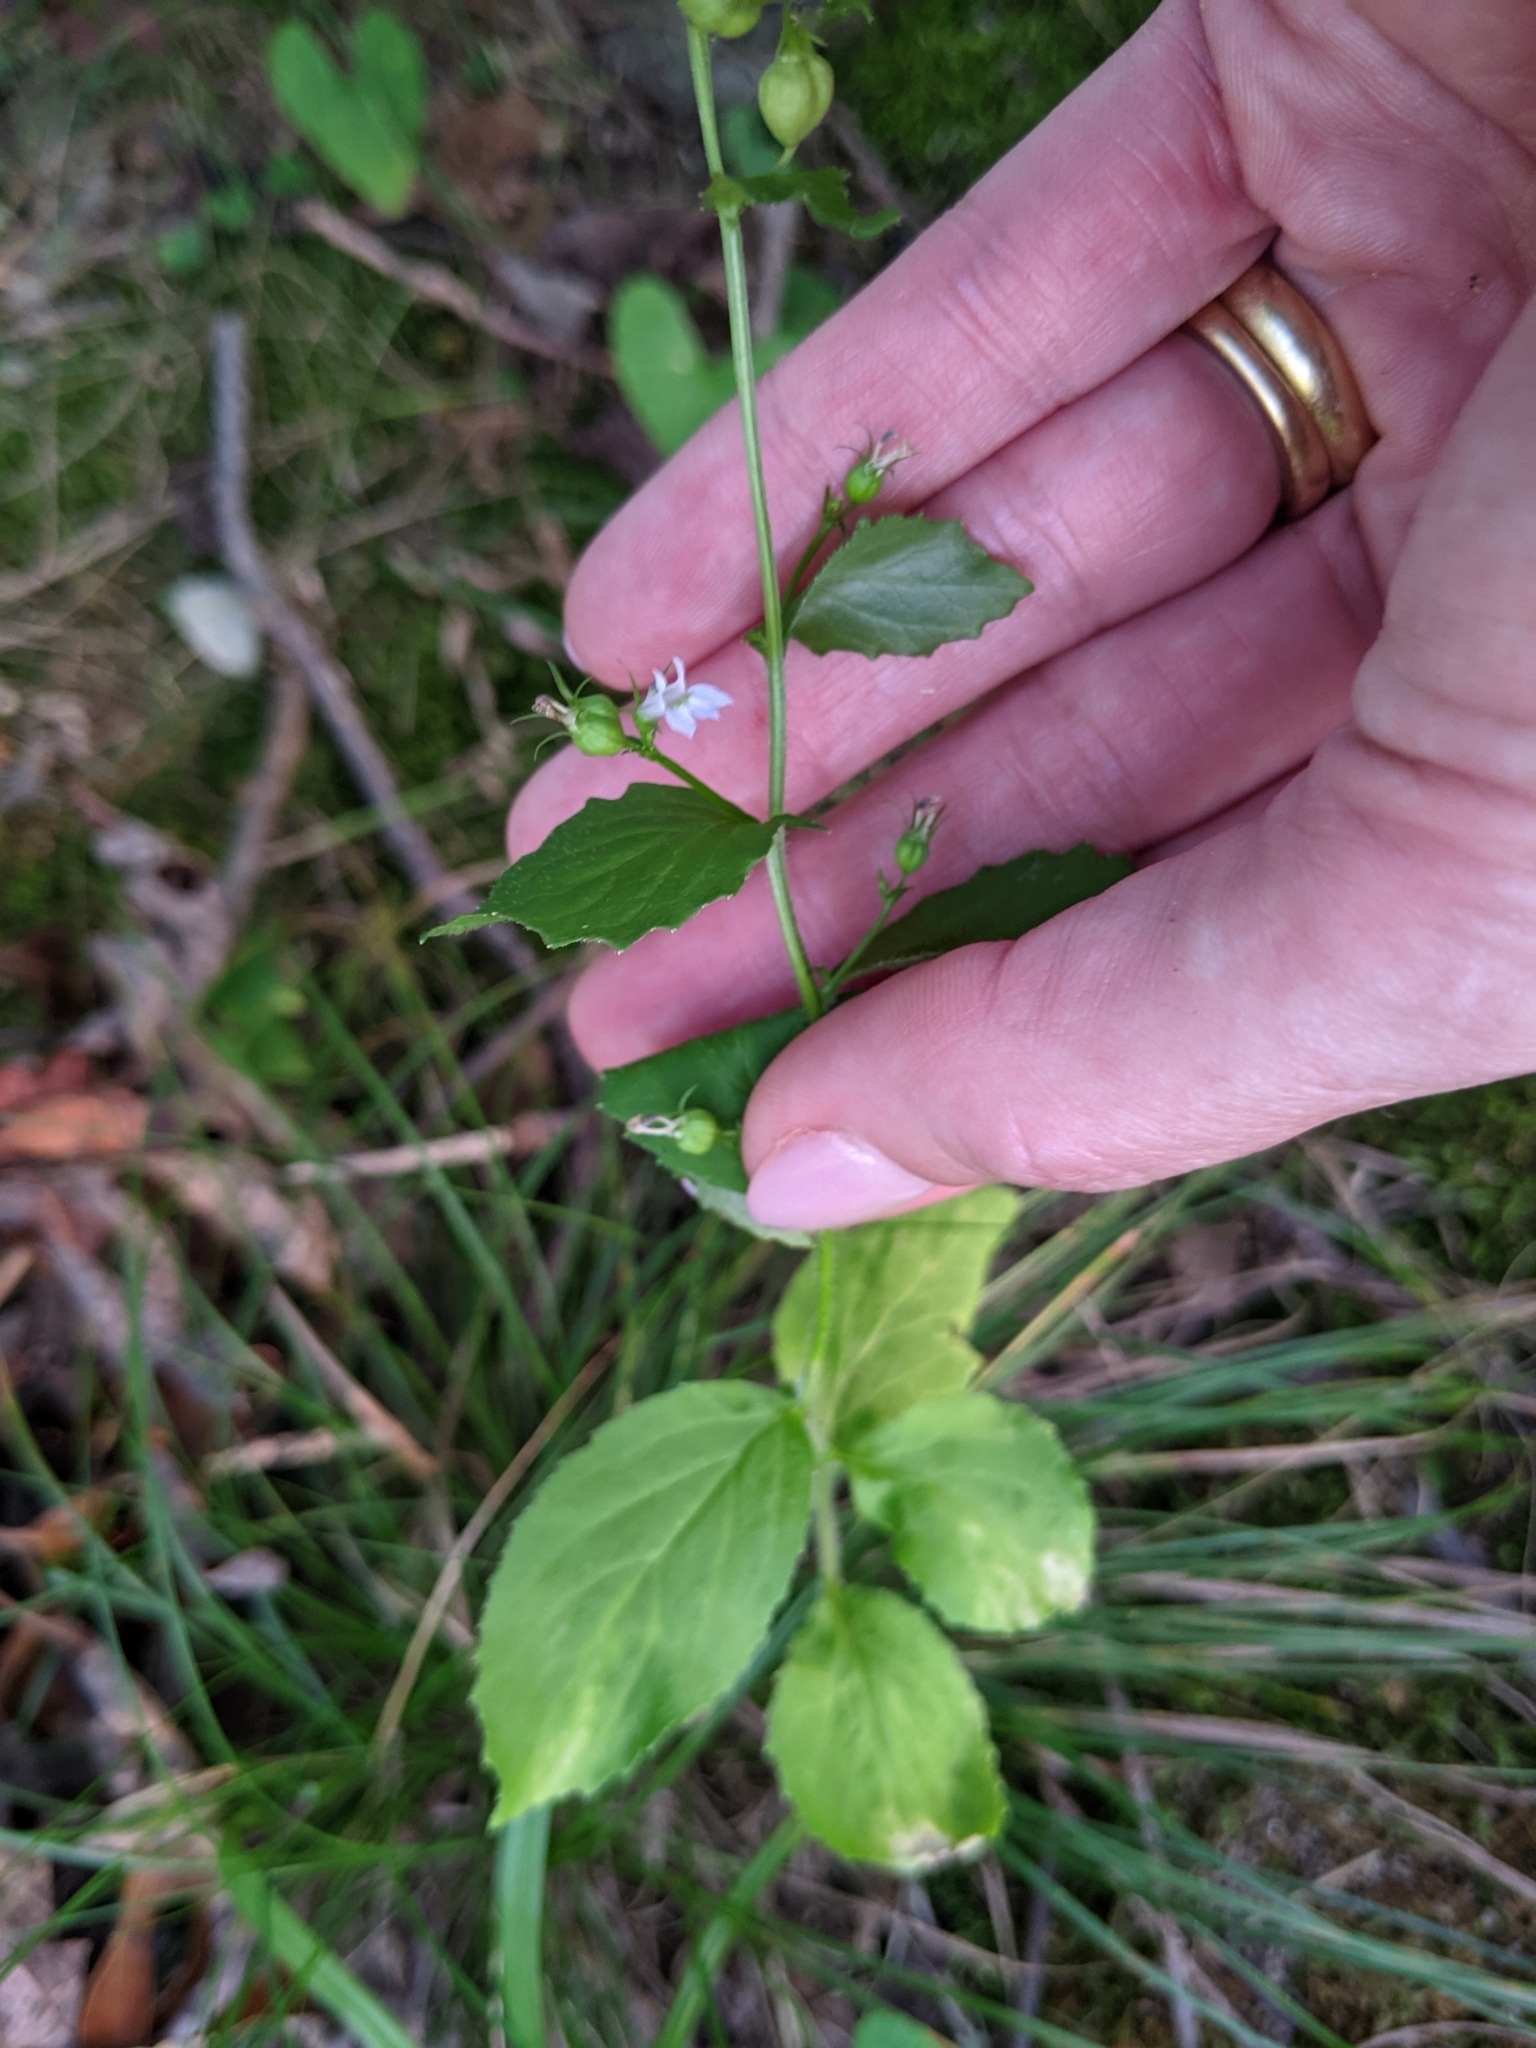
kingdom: Plantae
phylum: Tracheophyta
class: Magnoliopsida
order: Asterales
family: Campanulaceae
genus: Lobelia
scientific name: Lobelia inflata
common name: Indian tobacco
